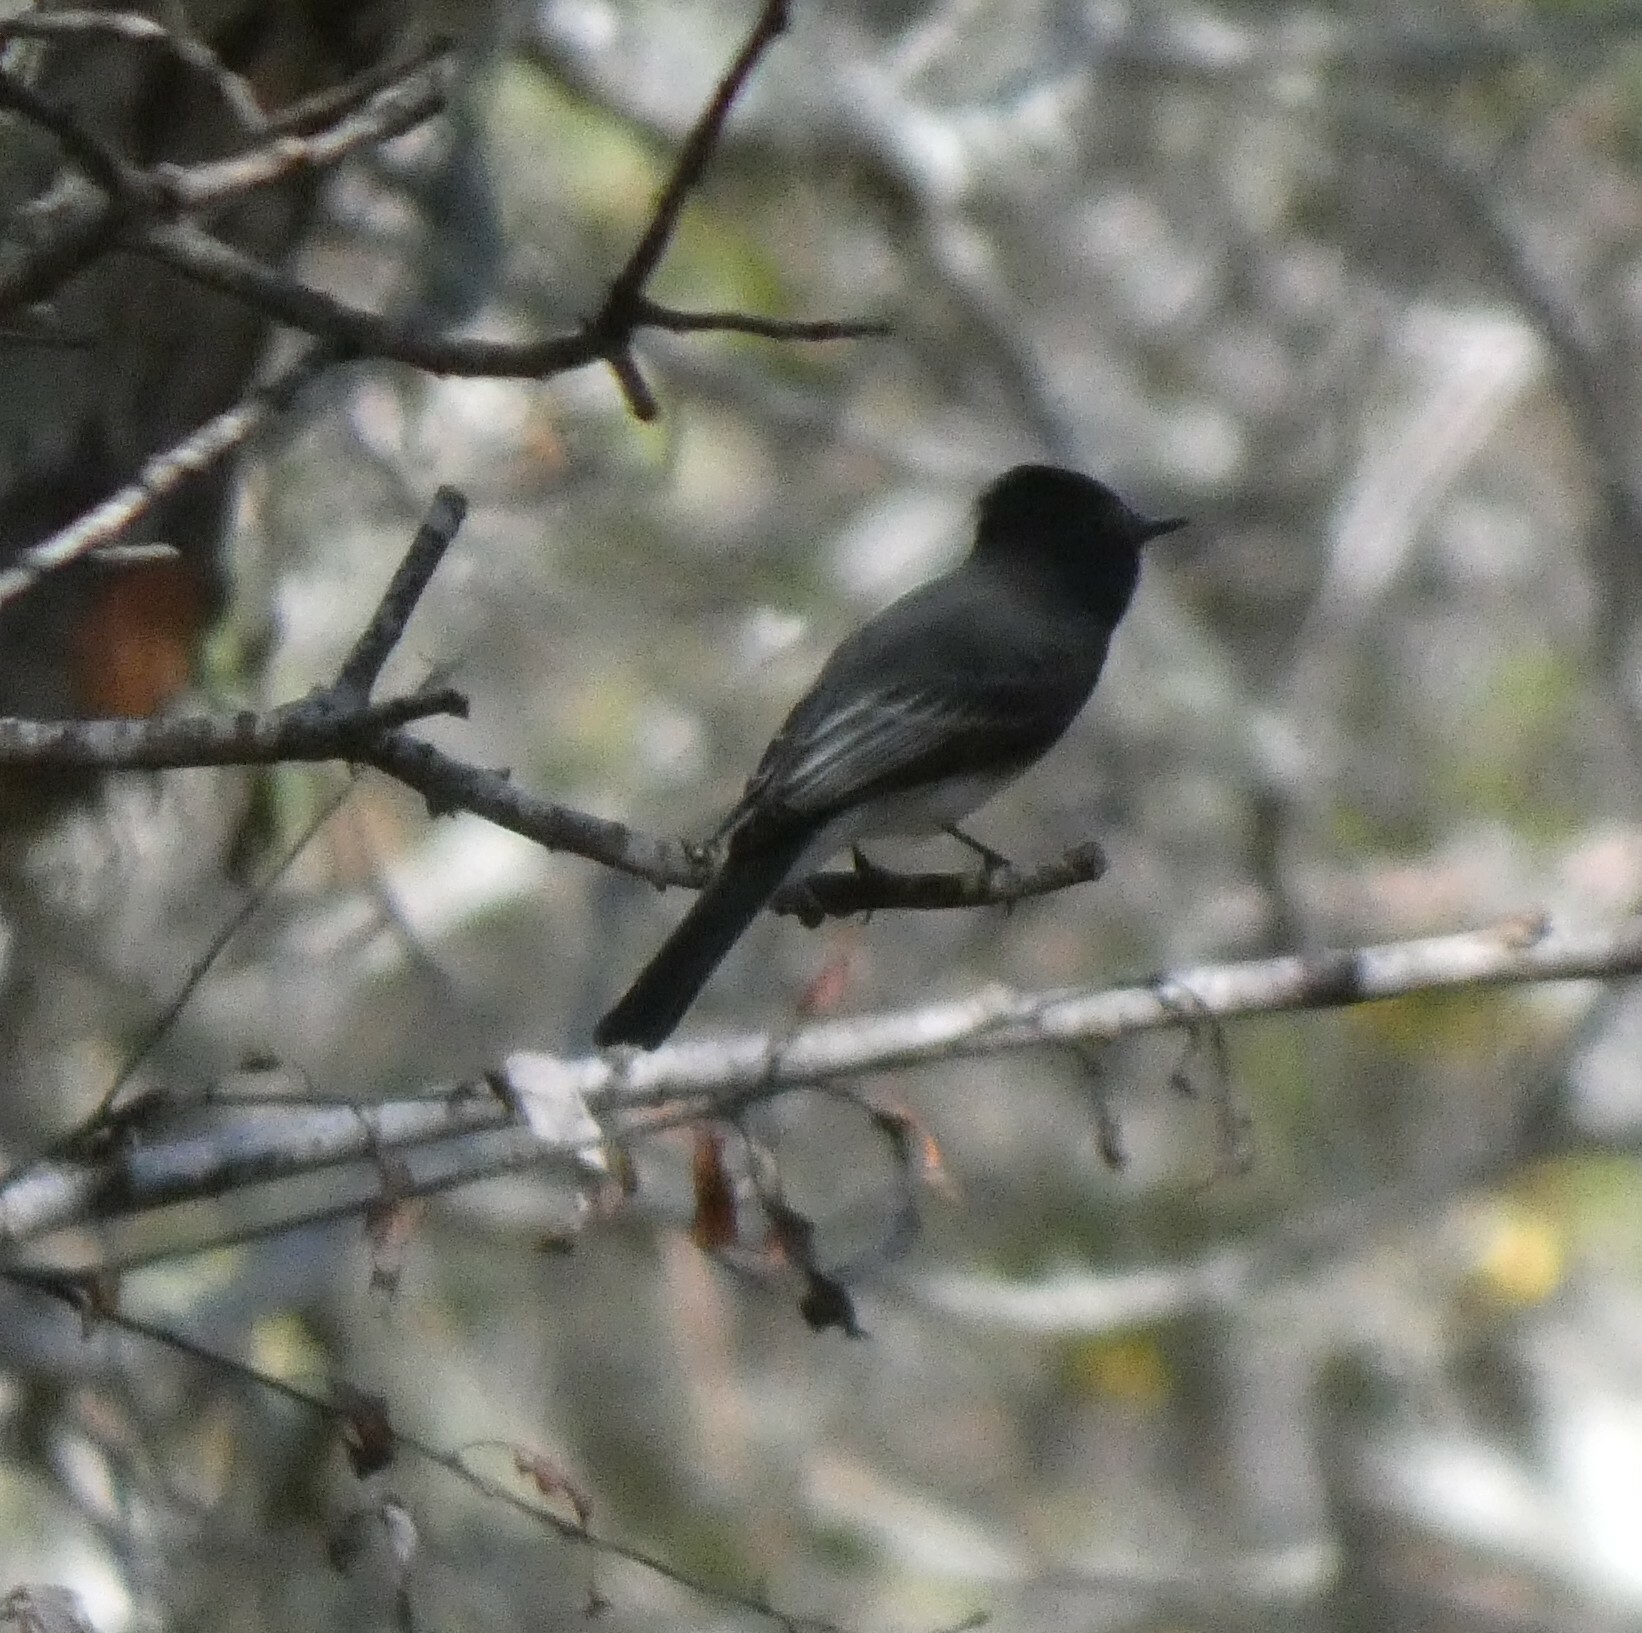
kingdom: Animalia
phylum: Chordata
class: Aves
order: Passeriformes
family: Tyrannidae
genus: Sayornis
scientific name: Sayornis nigricans
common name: Black phoebe
